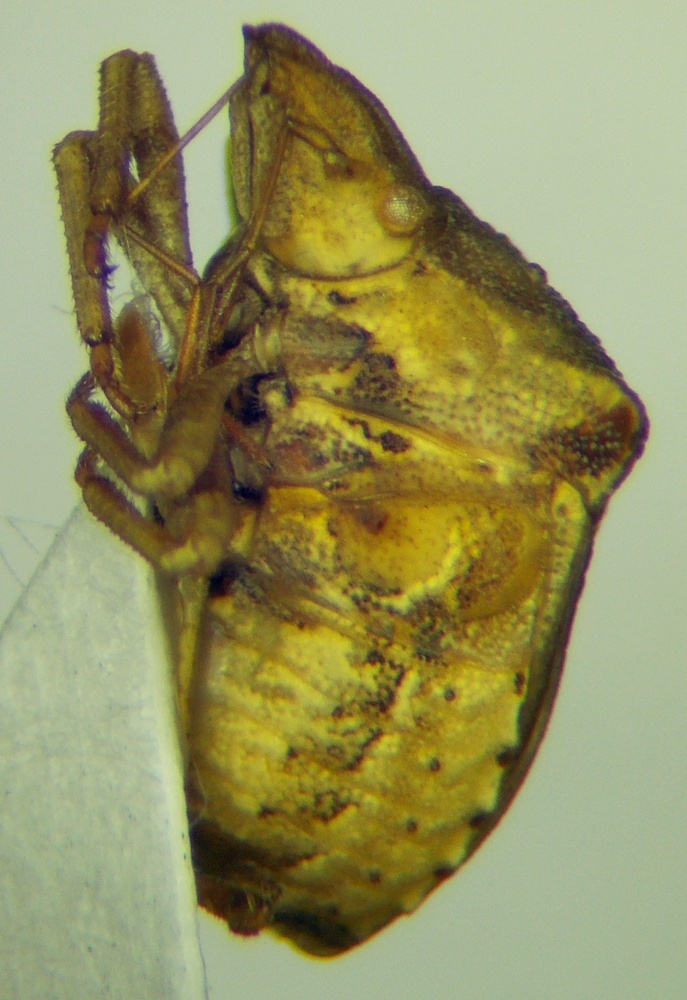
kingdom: Animalia
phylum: Arthropoda
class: Insecta
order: Hemiptera
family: Pentatomidae
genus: Ancyrosoma
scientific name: Ancyrosoma leucogrammes
